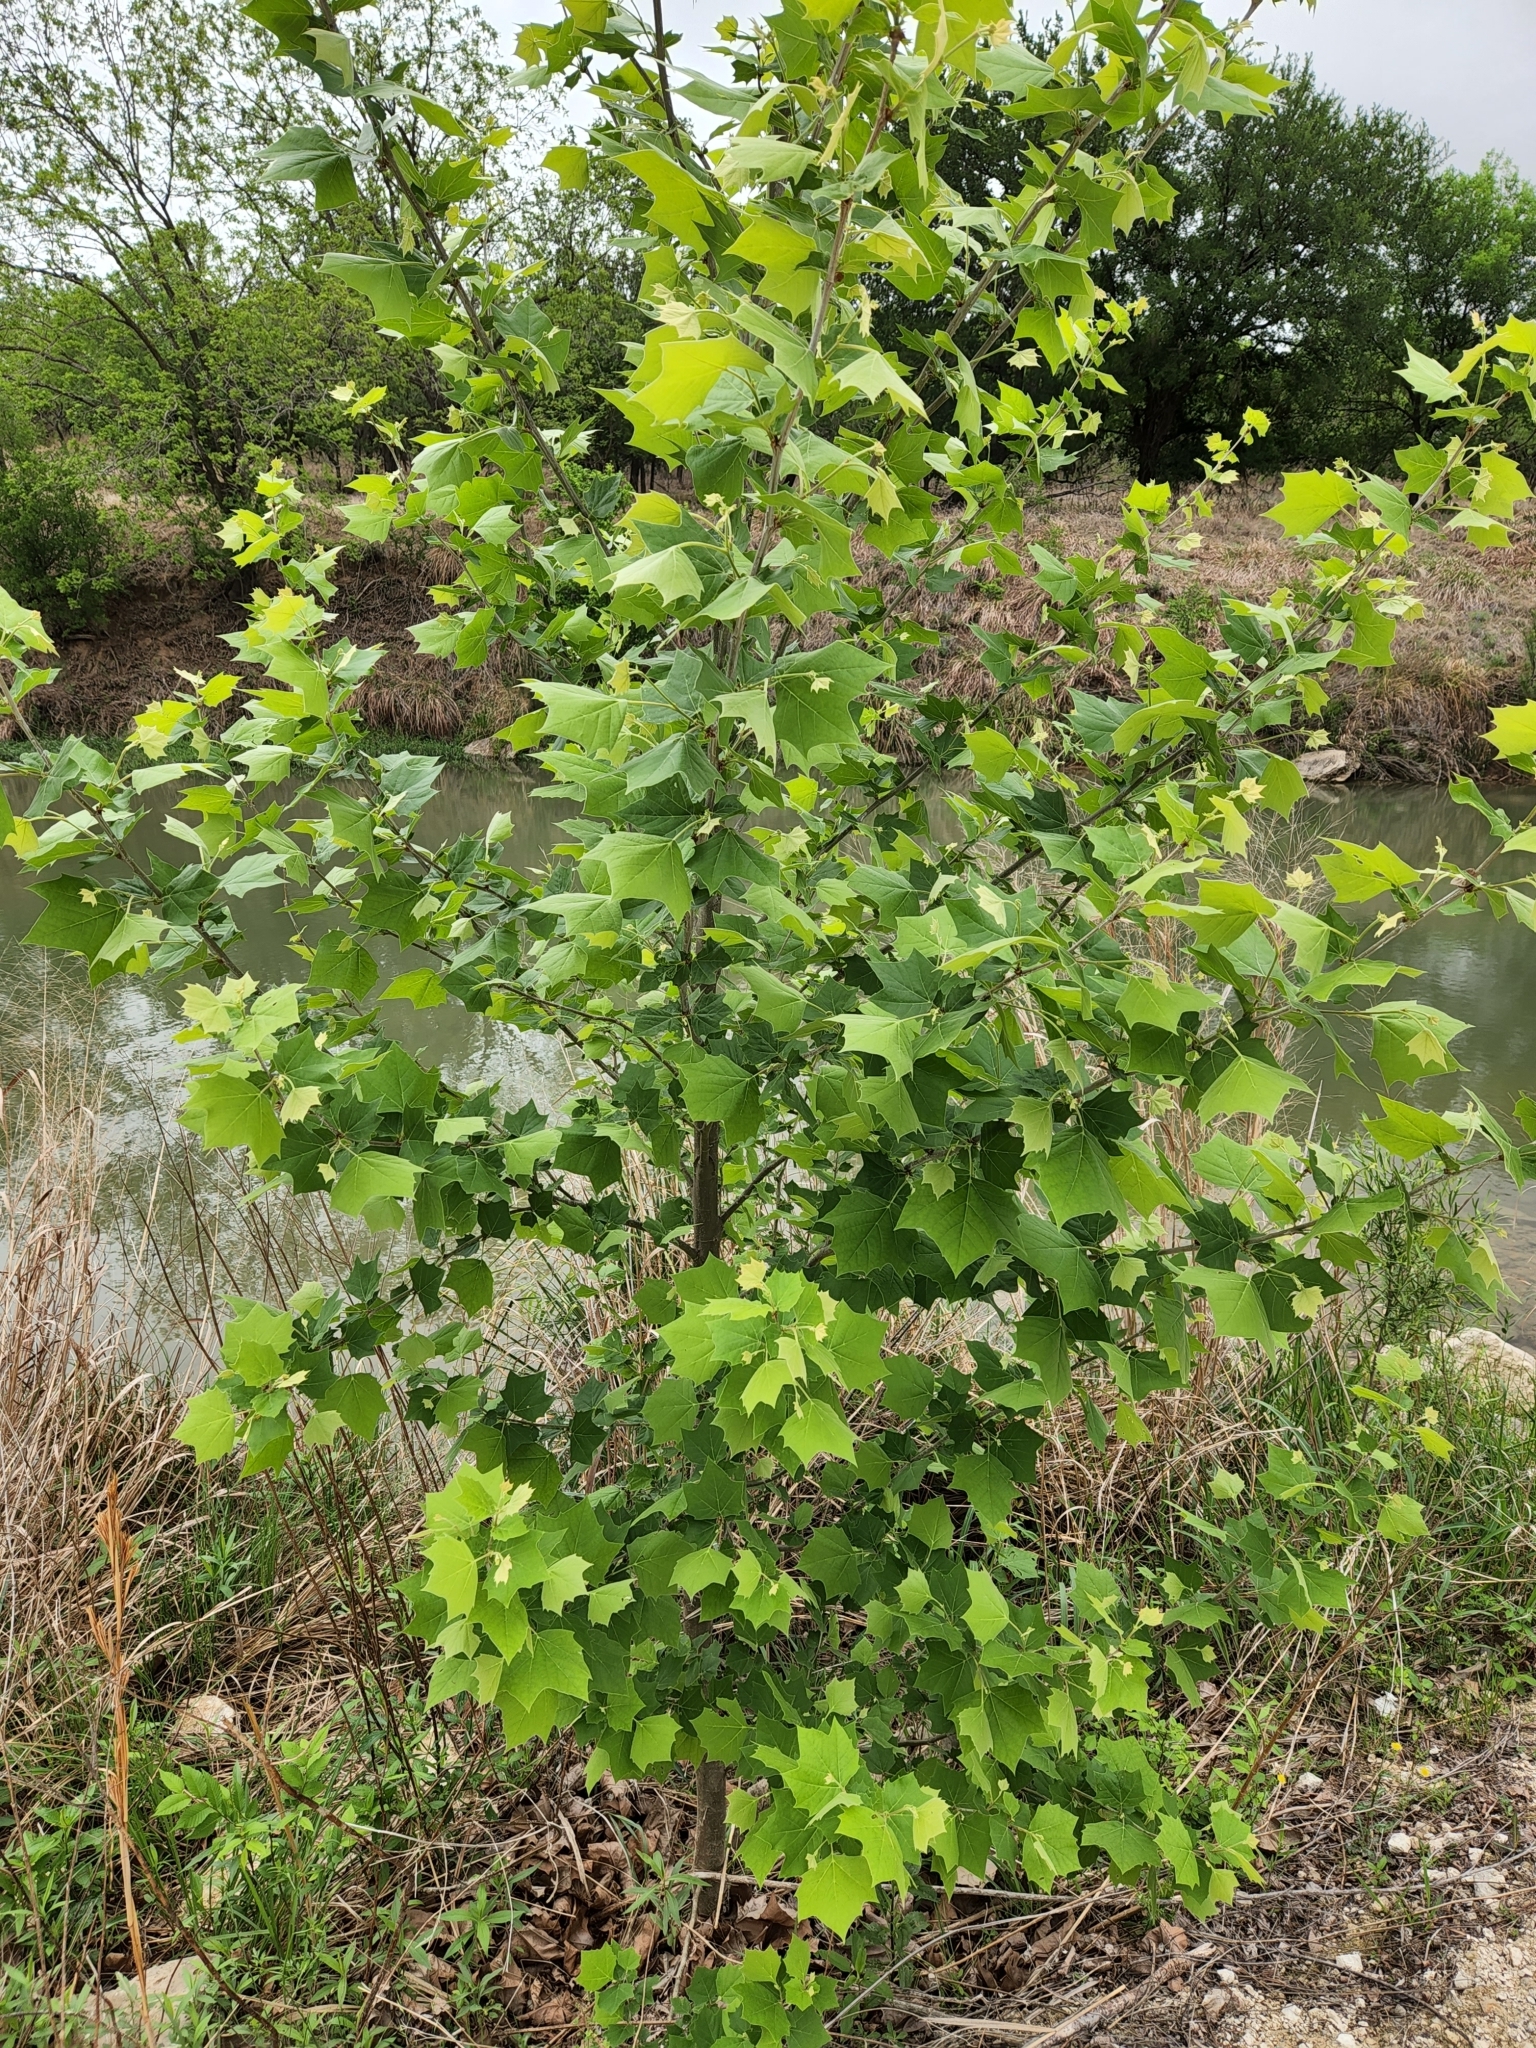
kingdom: Plantae
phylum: Tracheophyta
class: Magnoliopsida
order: Proteales
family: Platanaceae
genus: Platanus
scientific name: Platanus occidentalis
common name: American sycamore
